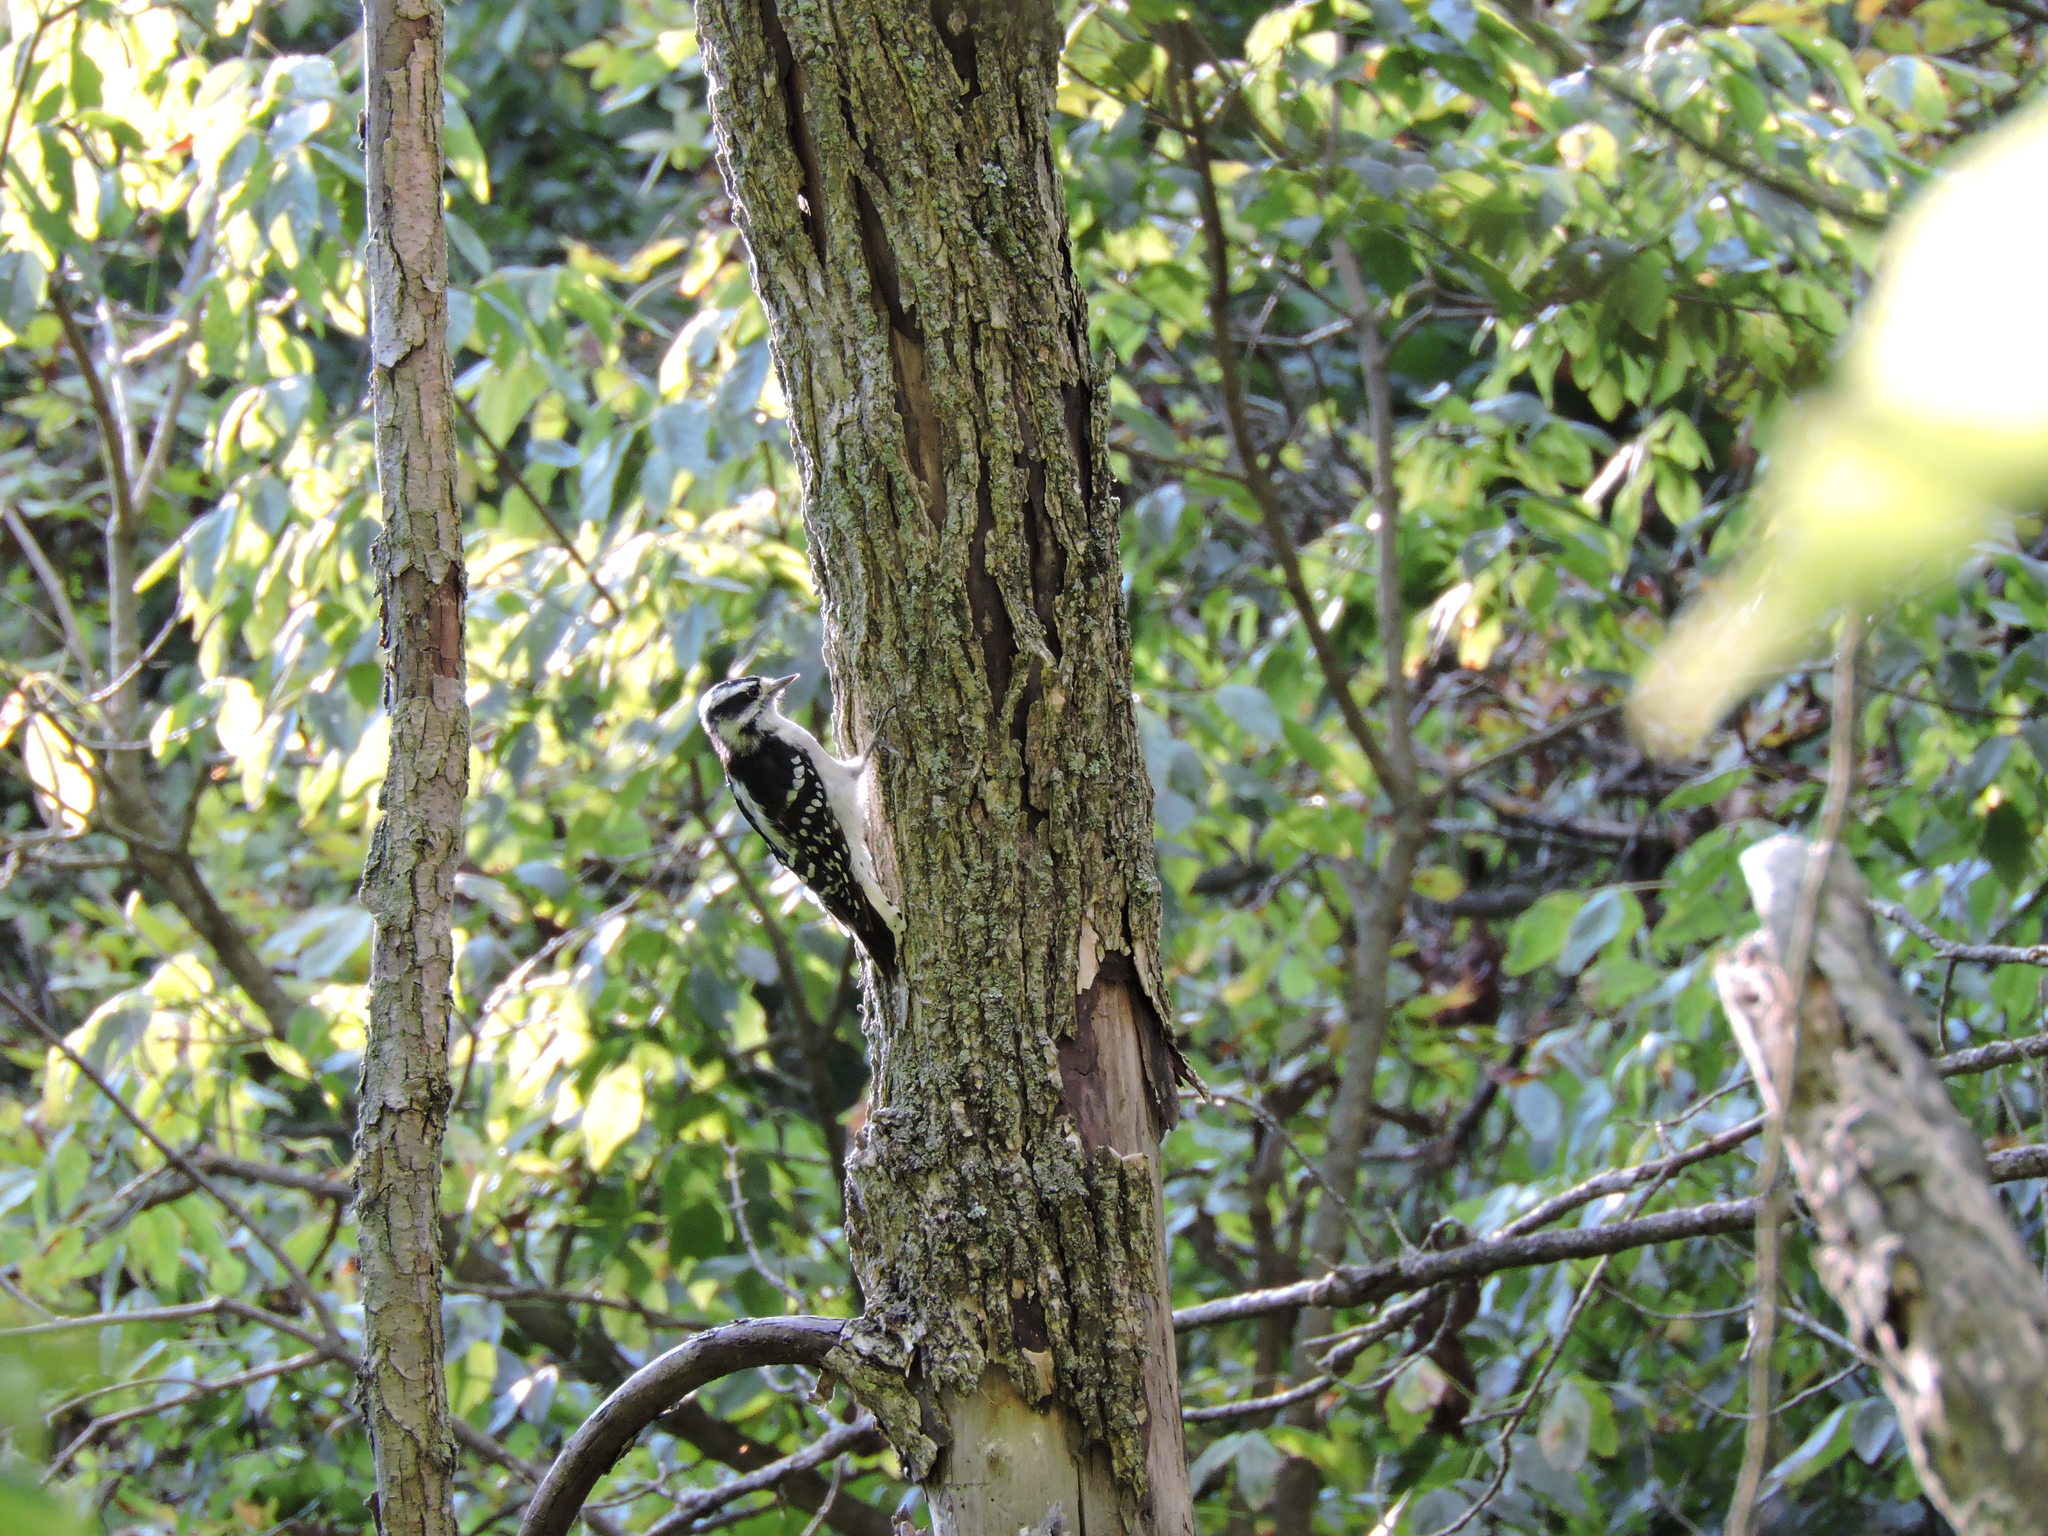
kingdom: Animalia
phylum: Chordata
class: Aves
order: Piciformes
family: Picidae
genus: Dryobates
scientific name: Dryobates pubescens
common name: Downy woodpecker
